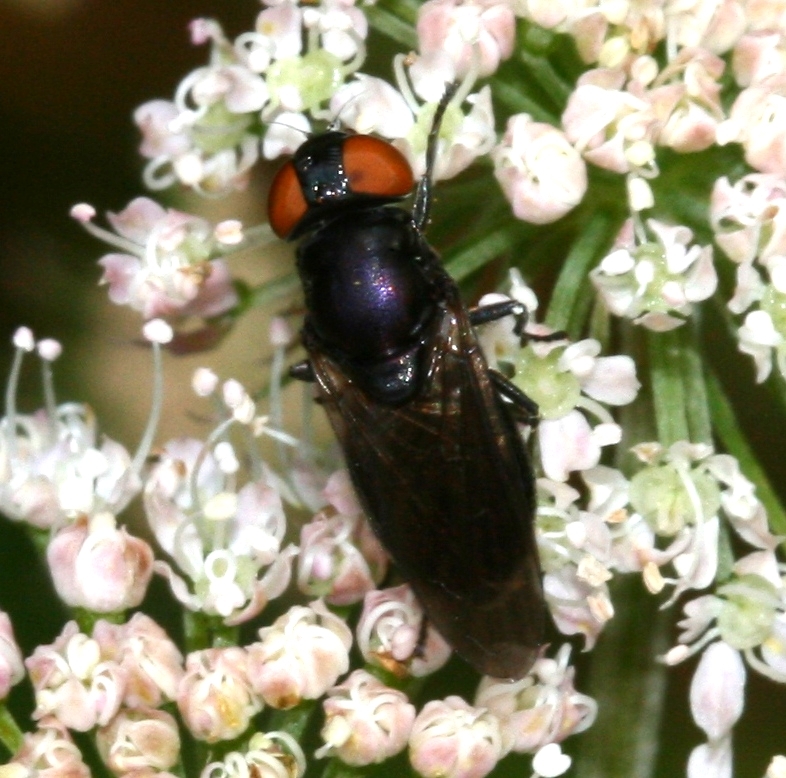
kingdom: Animalia
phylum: Arthropoda
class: Insecta
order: Diptera
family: Syrphidae
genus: Chrysogaster
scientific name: Chrysogaster solstitialis
